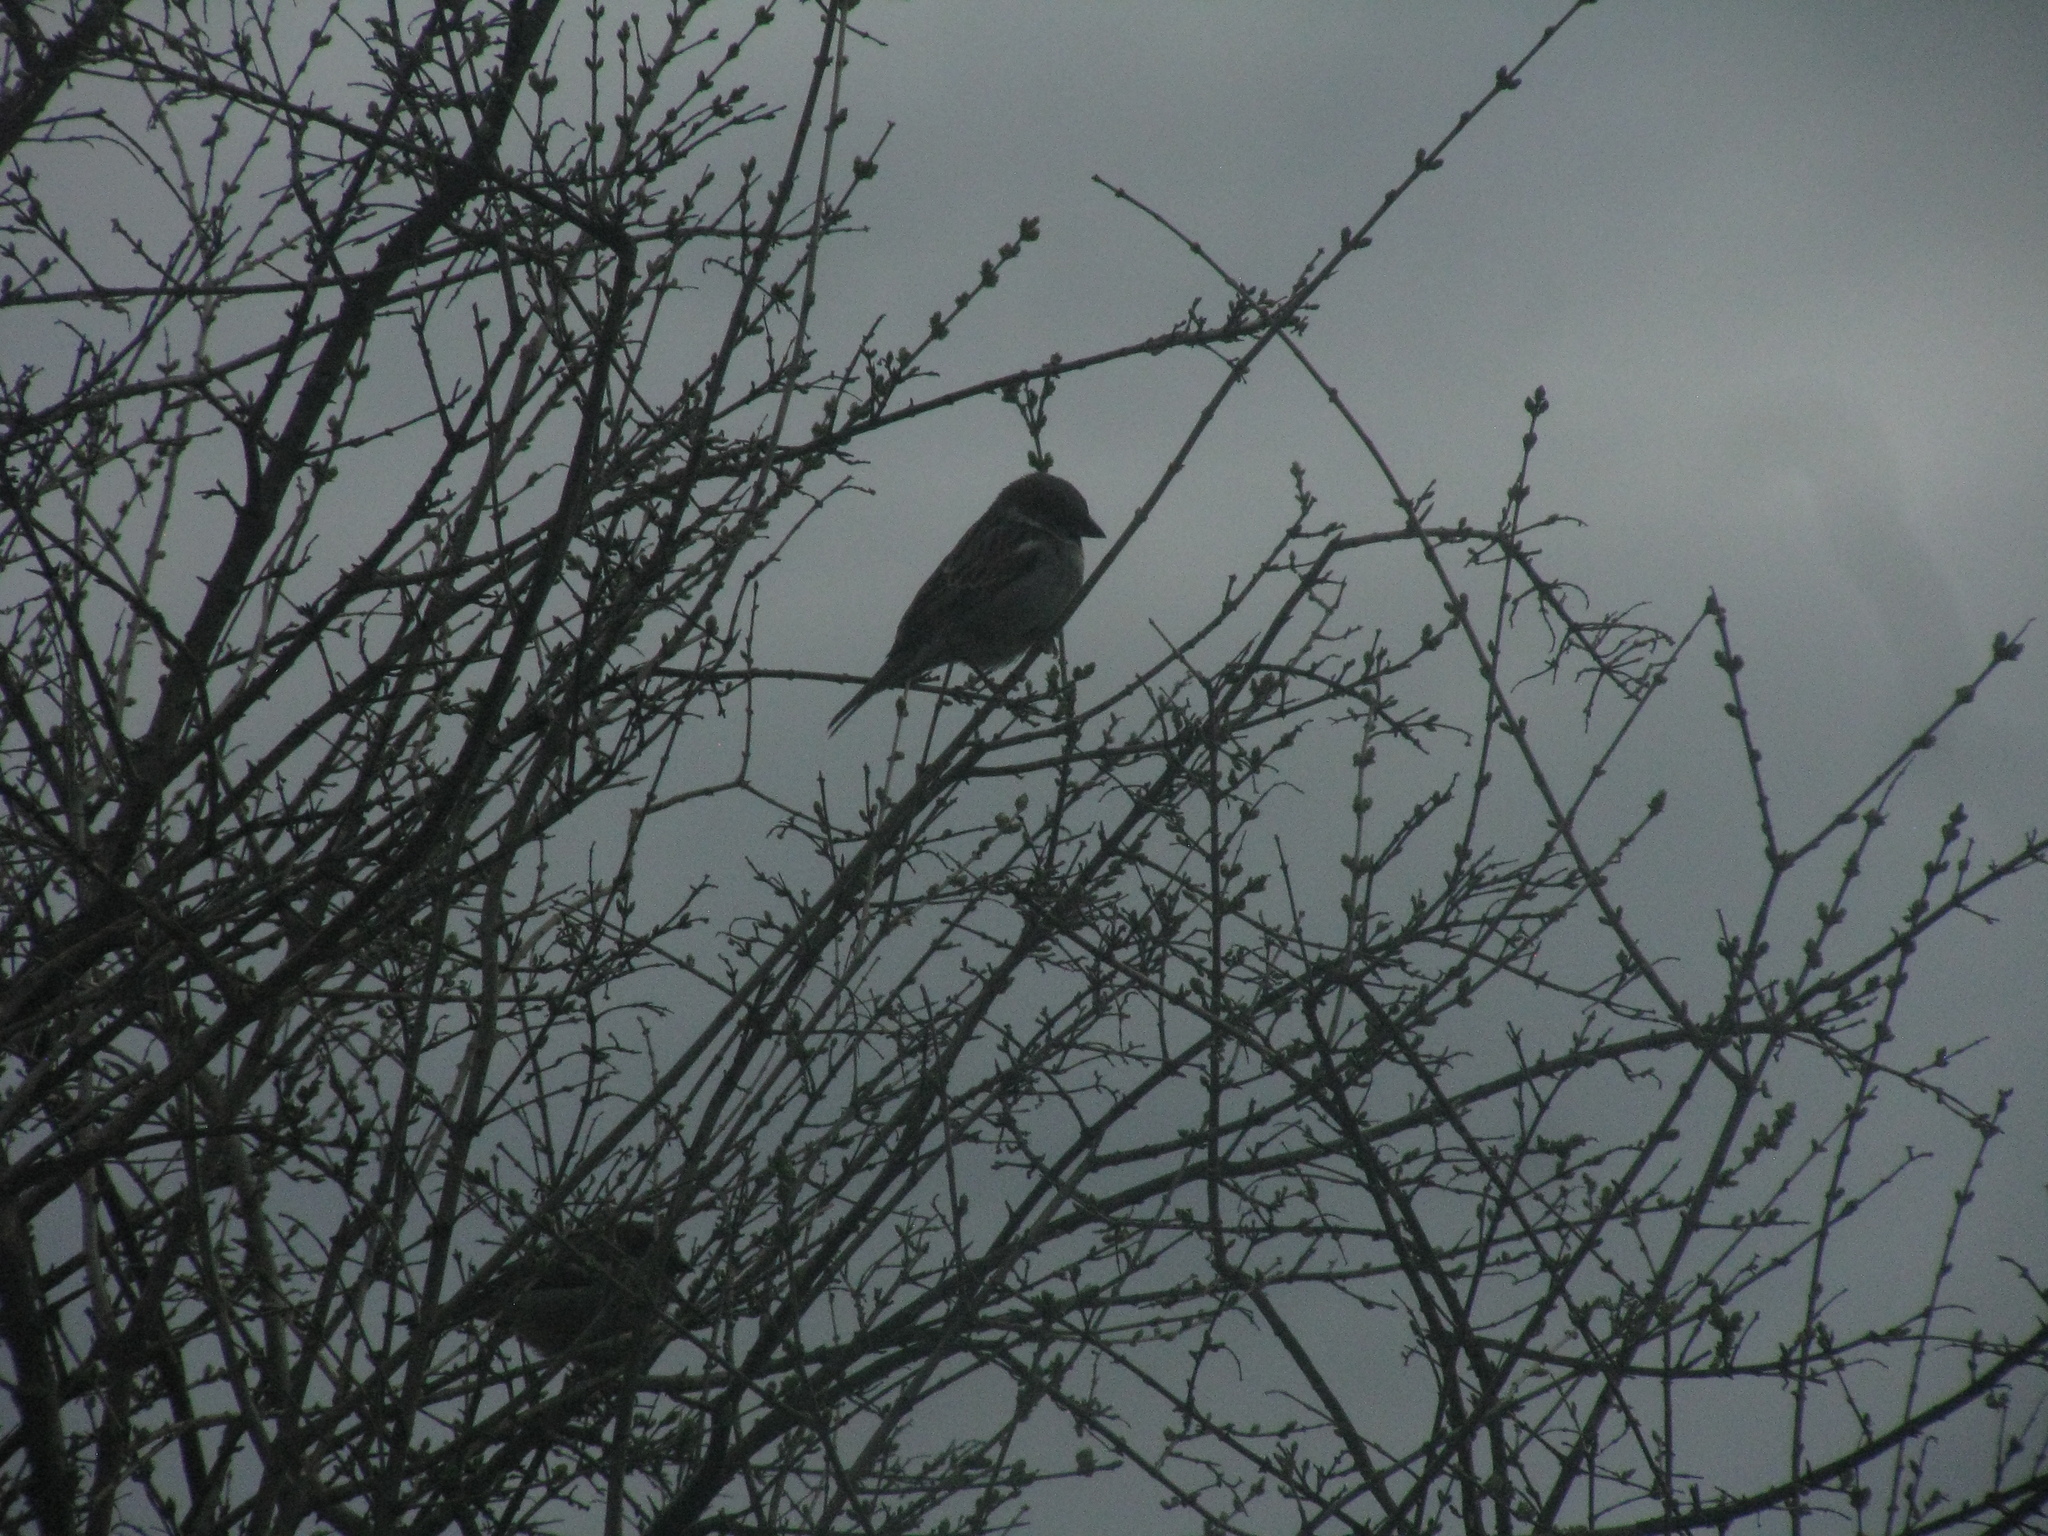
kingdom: Animalia
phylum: Chordata
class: Aves
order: Passeriformes
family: Passeridae
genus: Passer
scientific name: Passer domesticus
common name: House sparrow
